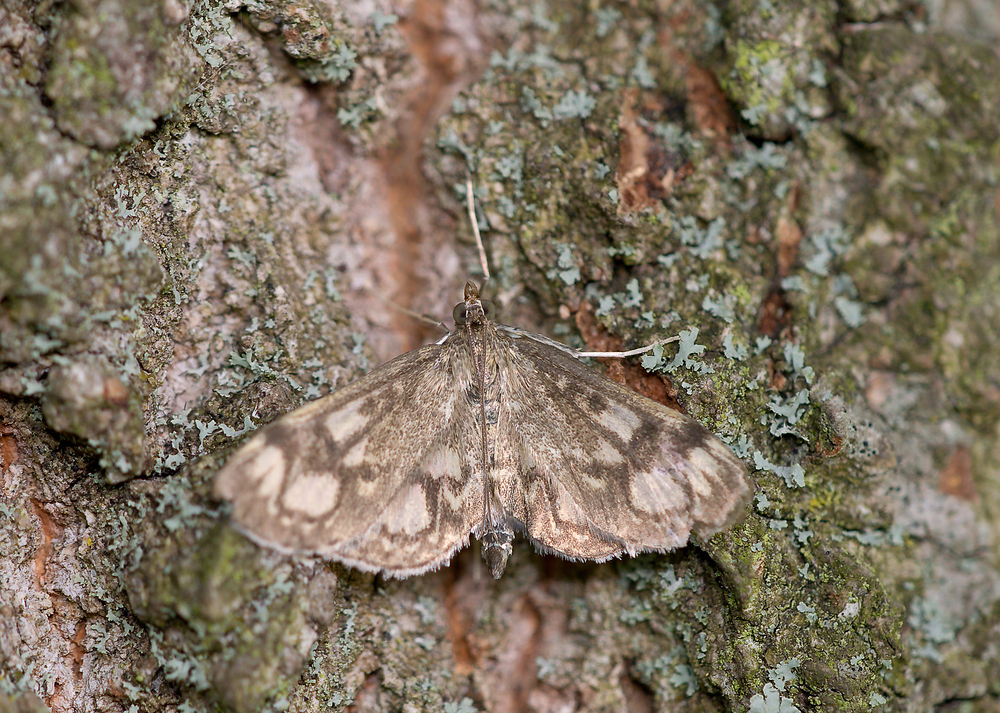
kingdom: Animalia
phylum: Arthropoda
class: Insecta
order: Lepidoptera
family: Crambidae
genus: Anania
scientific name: Anania coronata
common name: Elder pearl
